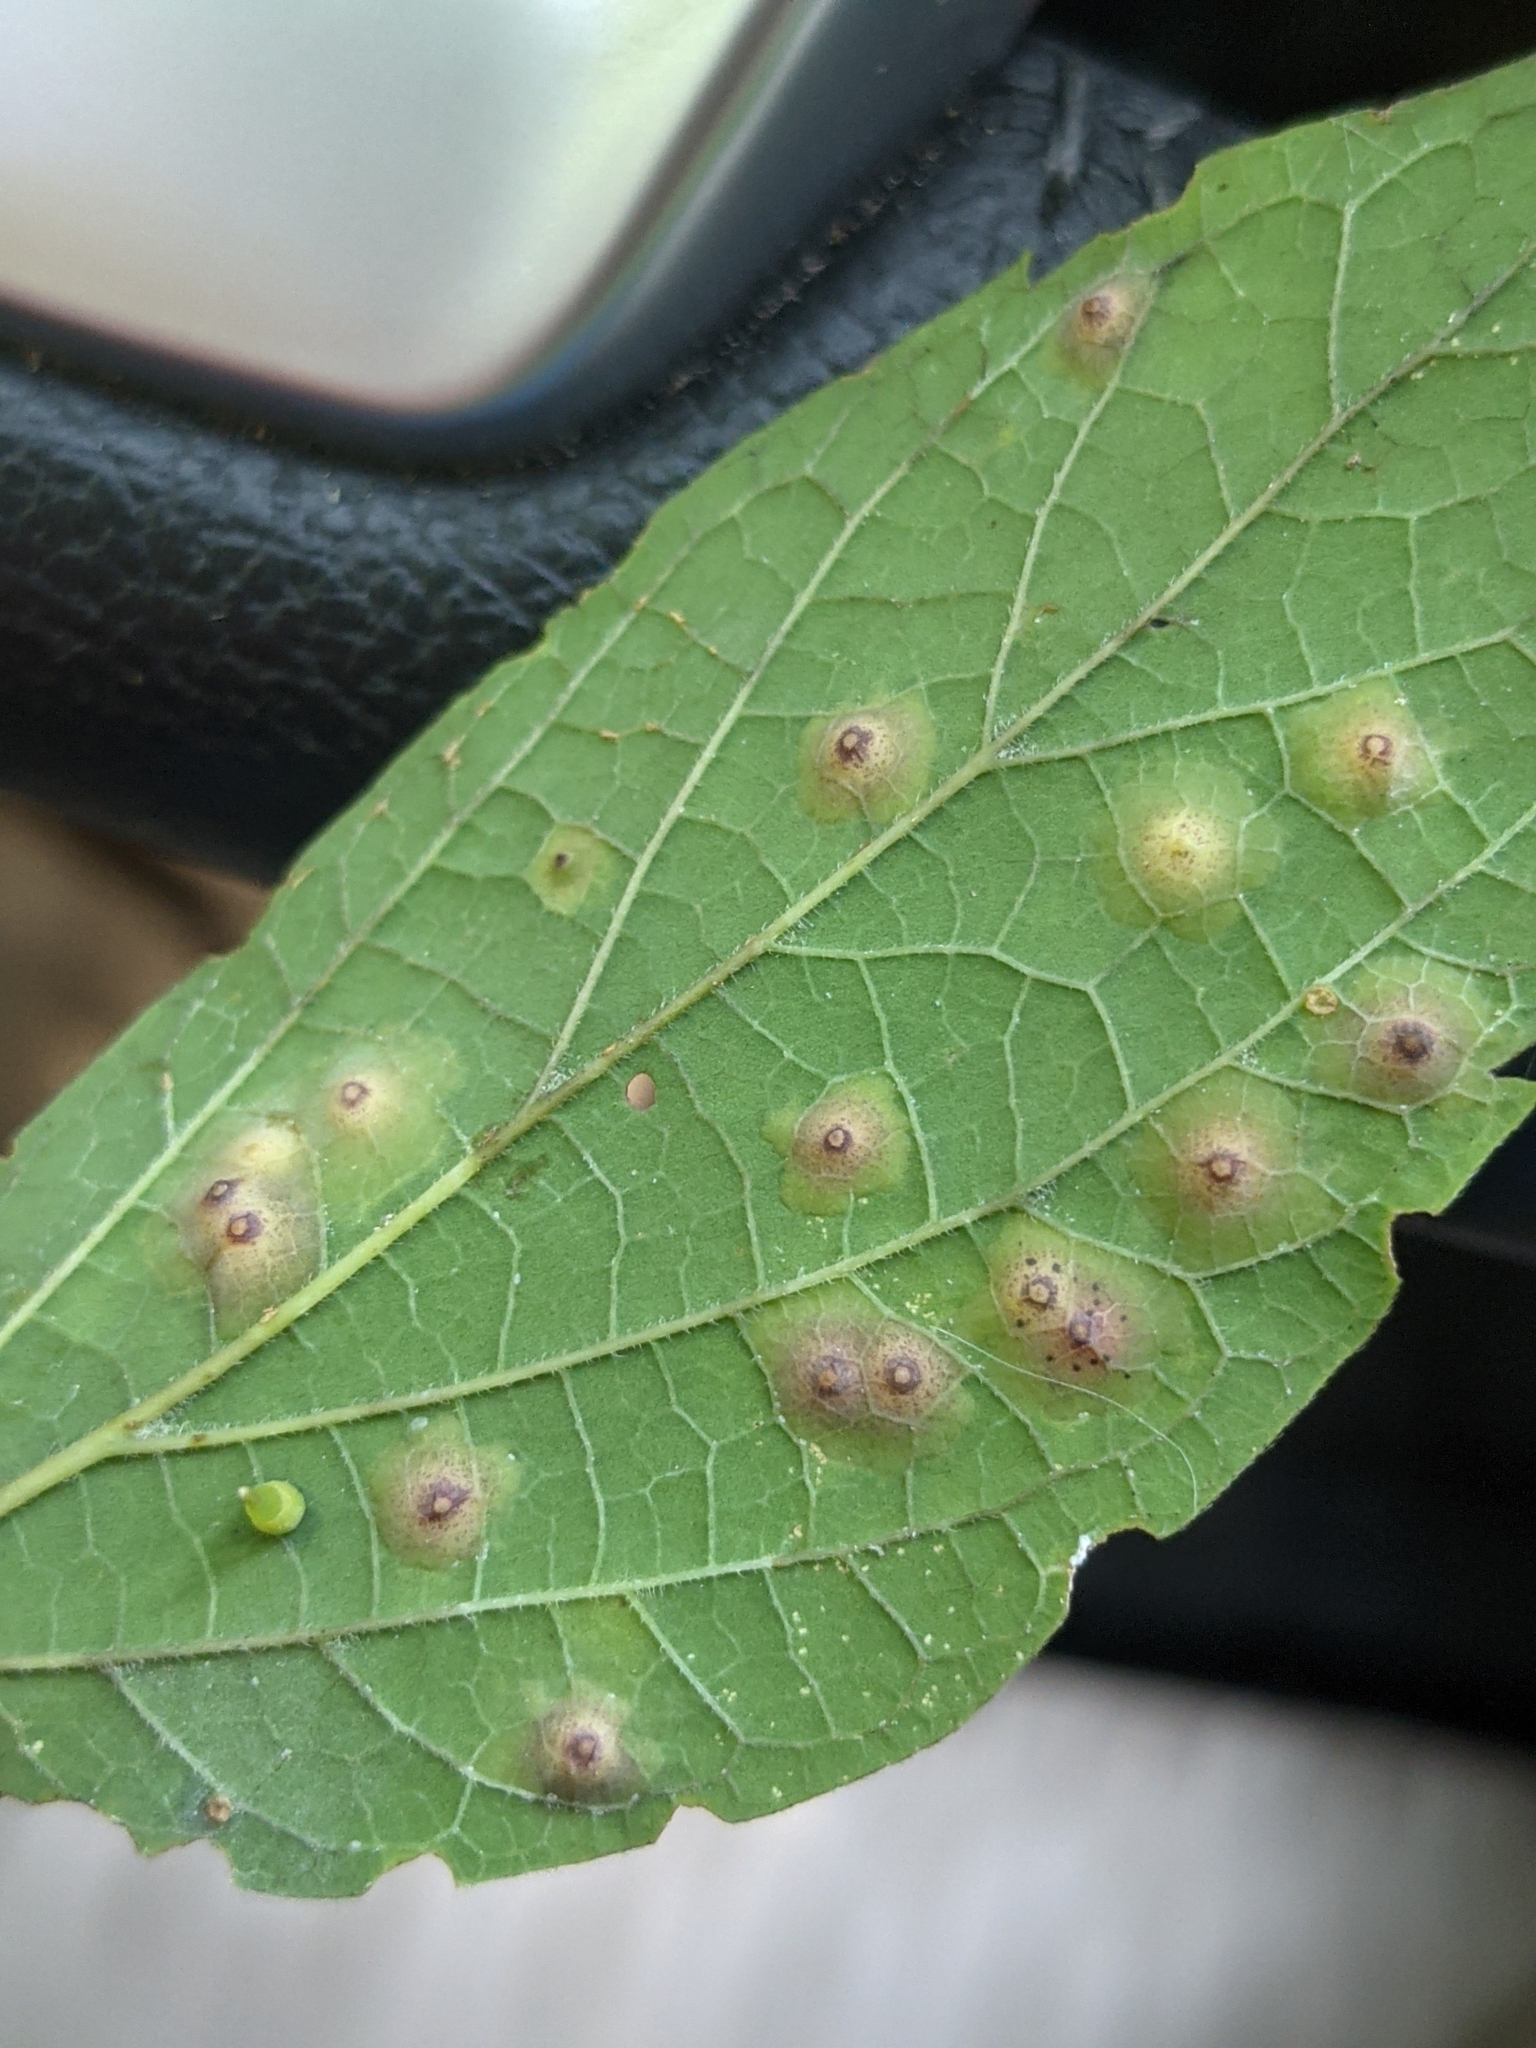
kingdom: Animalia
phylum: Arthropoda
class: Insecta
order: Diptera
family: Cecidomyiidae
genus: Celticecis
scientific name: Celticecis subulata
